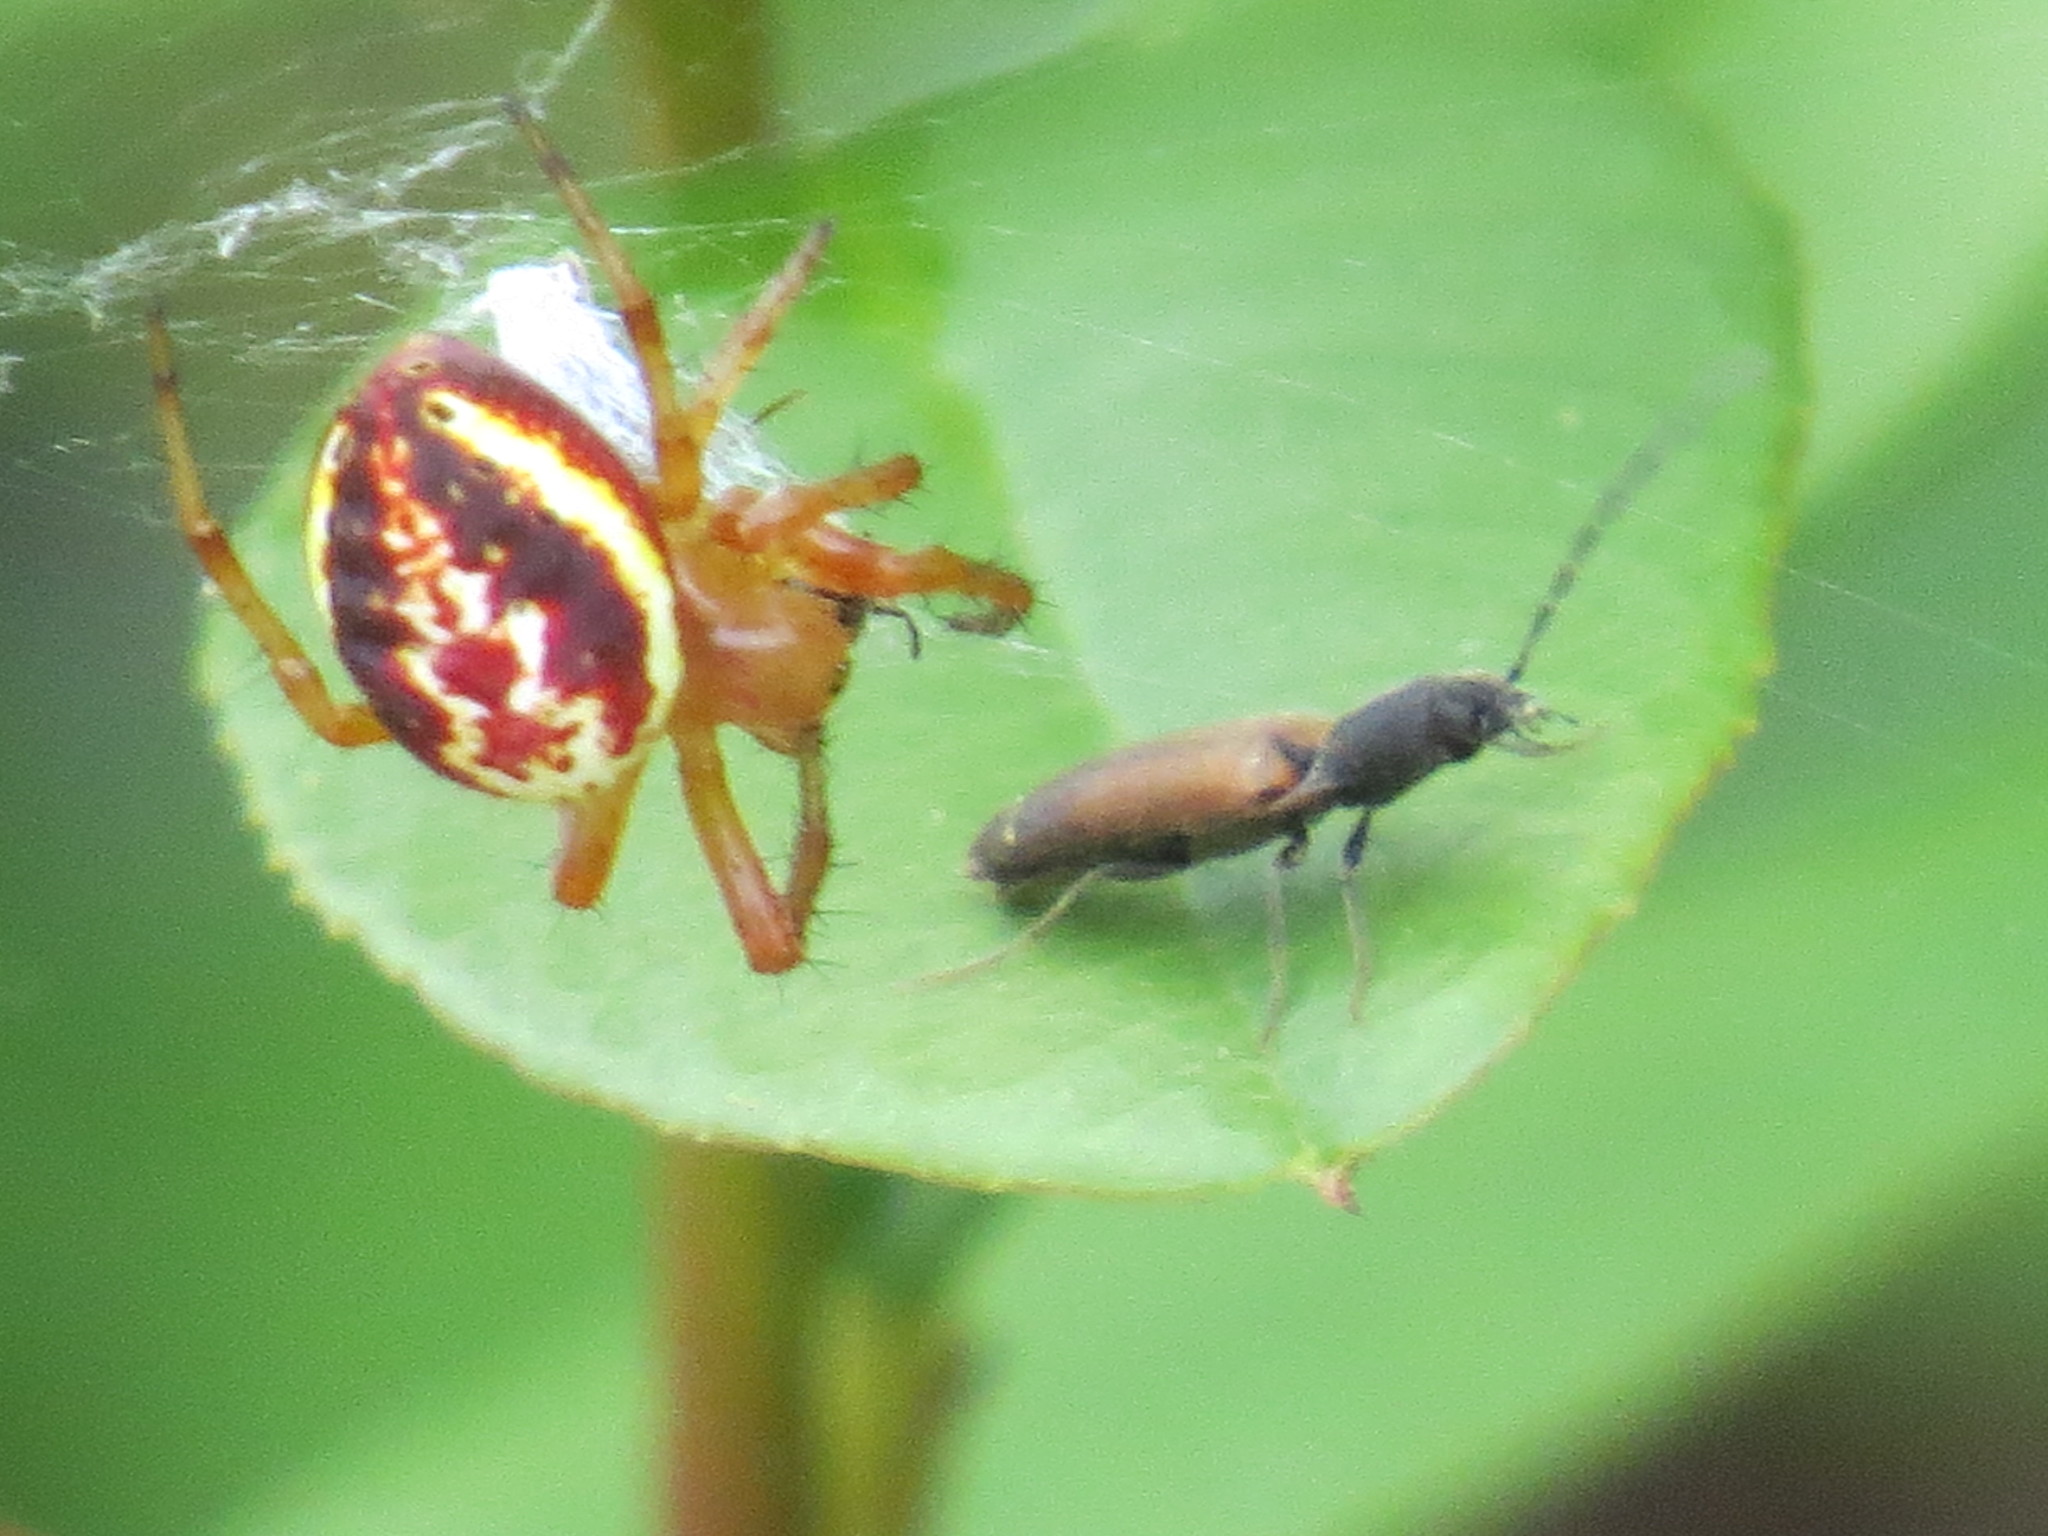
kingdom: Animalia
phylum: Arthropoda
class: Insecta
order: Coleoptera
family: Elateridae
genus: Dolerosomus
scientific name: Dolerosomus silaceus
